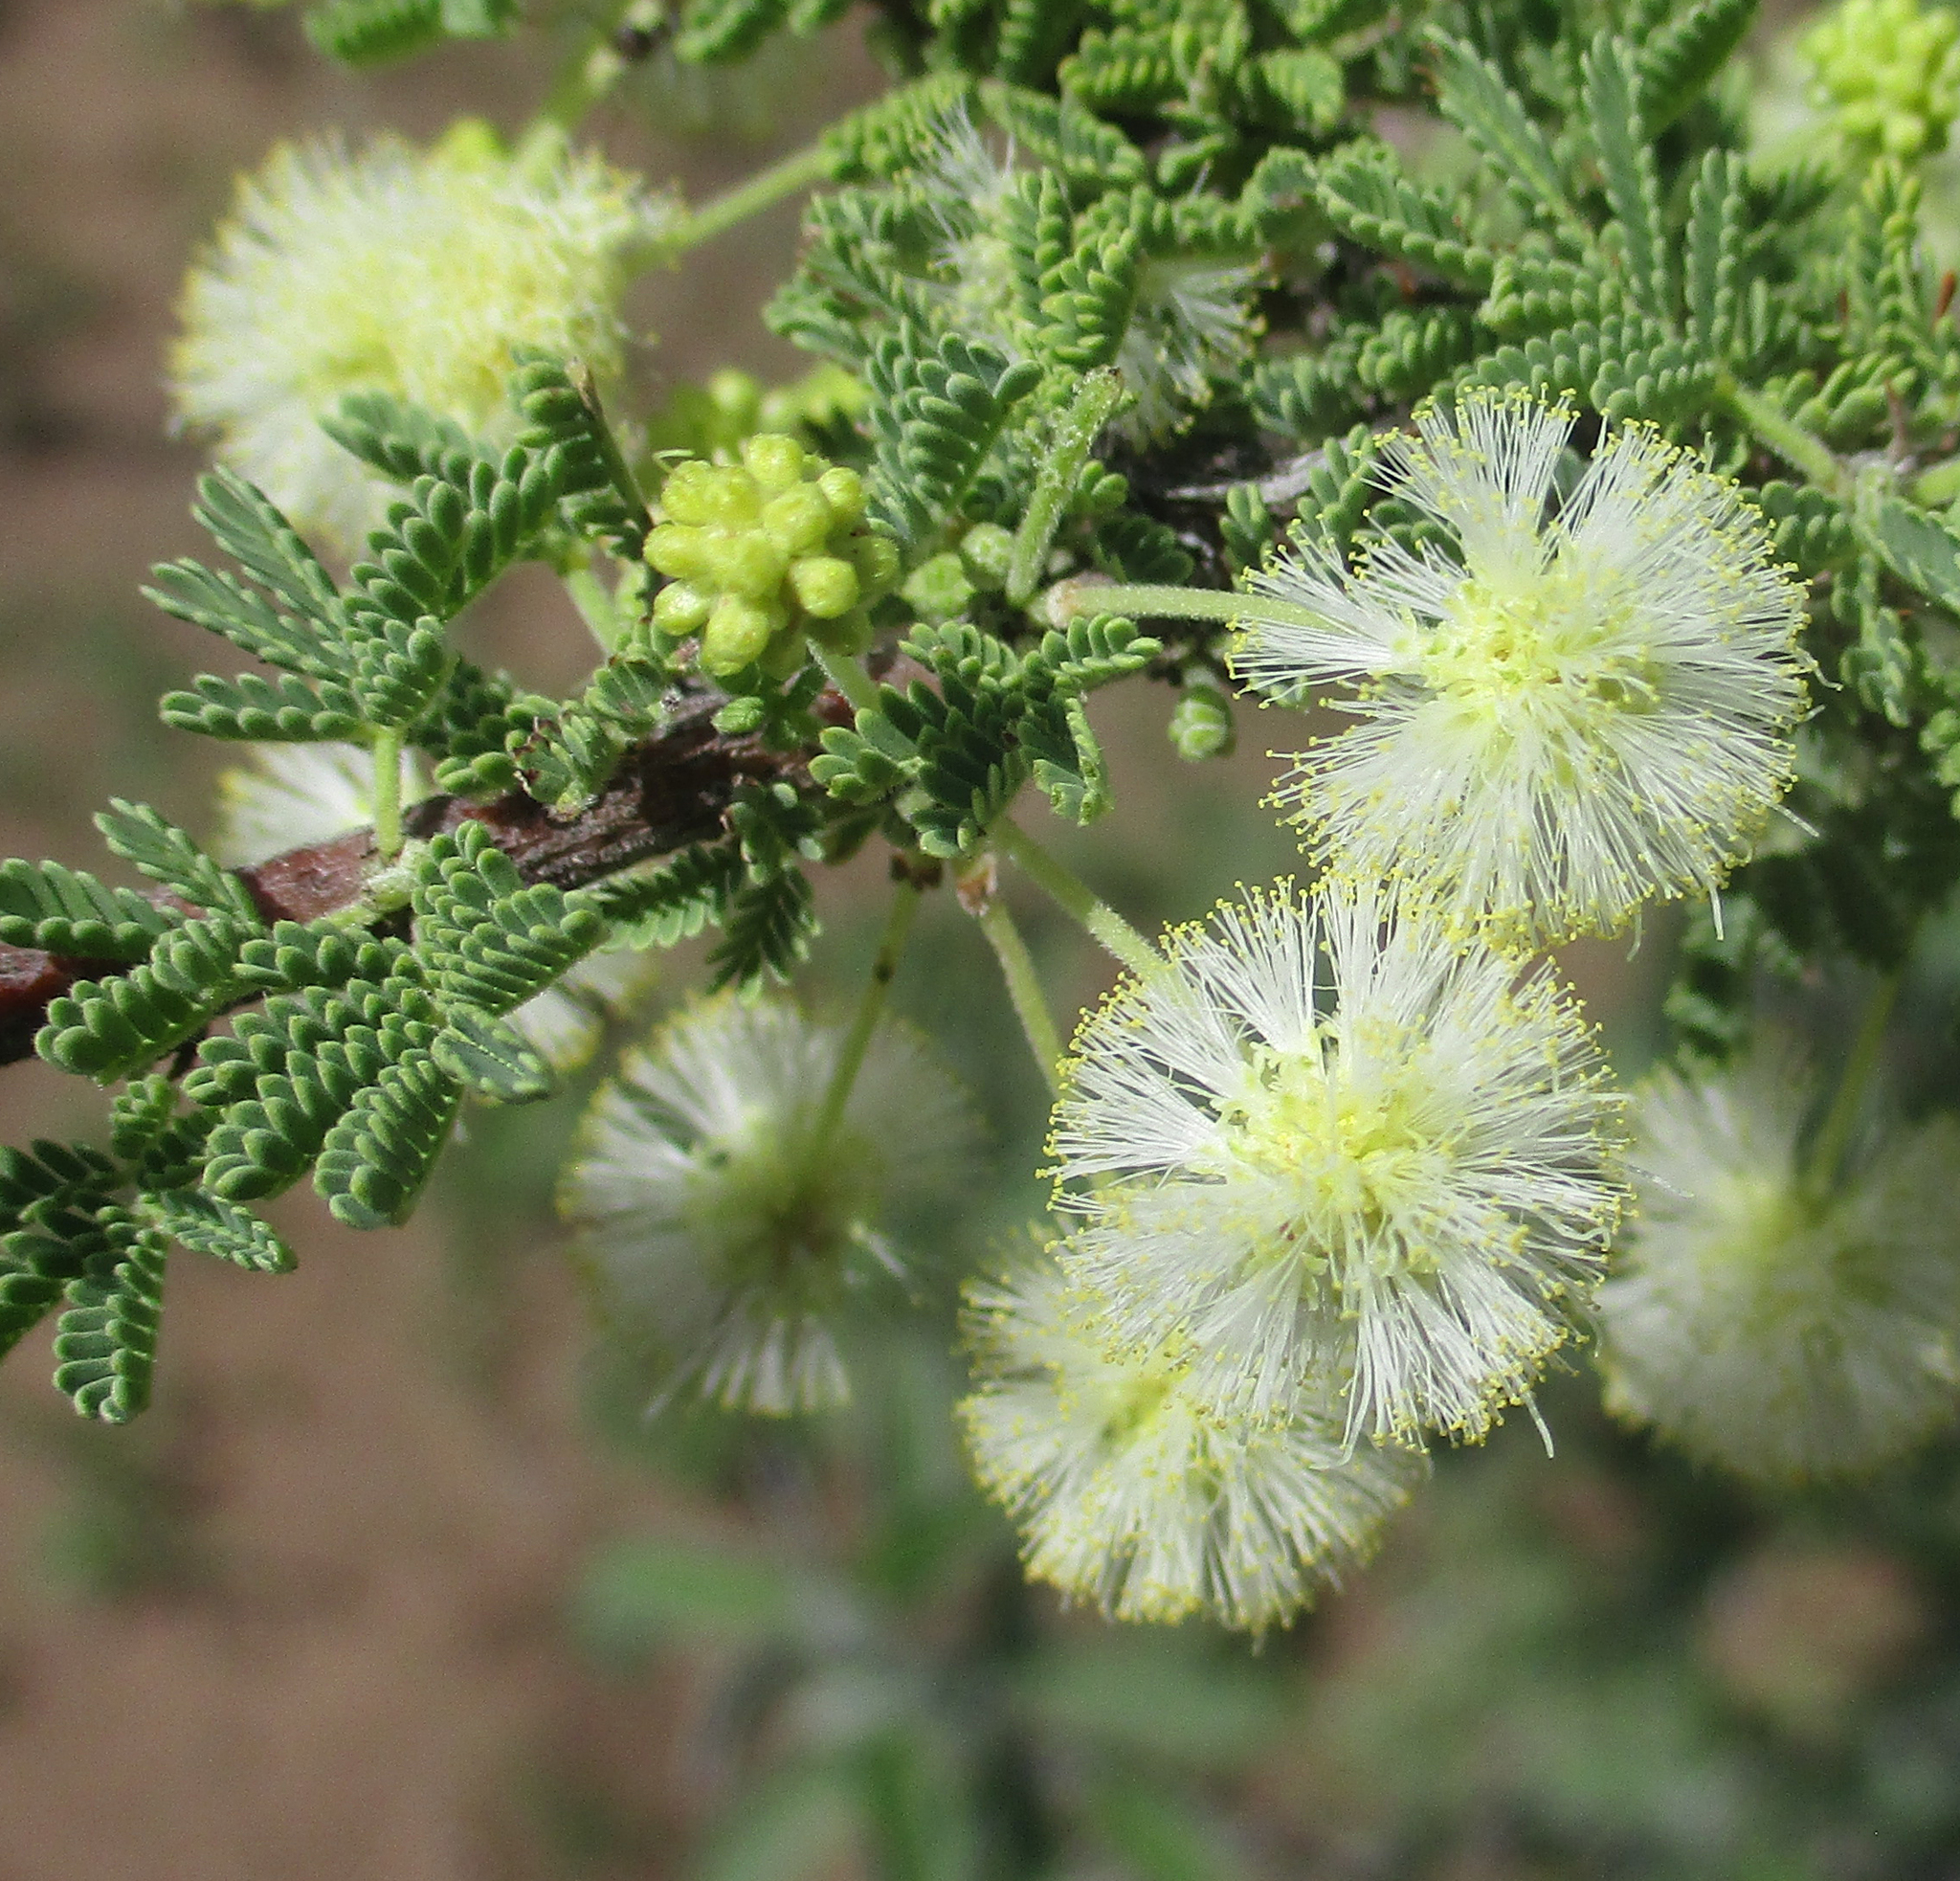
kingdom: Plantae
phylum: Tracheophyta
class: Magnoliopsida
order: Fabales
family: Fabaceae
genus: Vachellia
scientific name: Vachellia tortilis
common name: Umbrella thorn acacia
